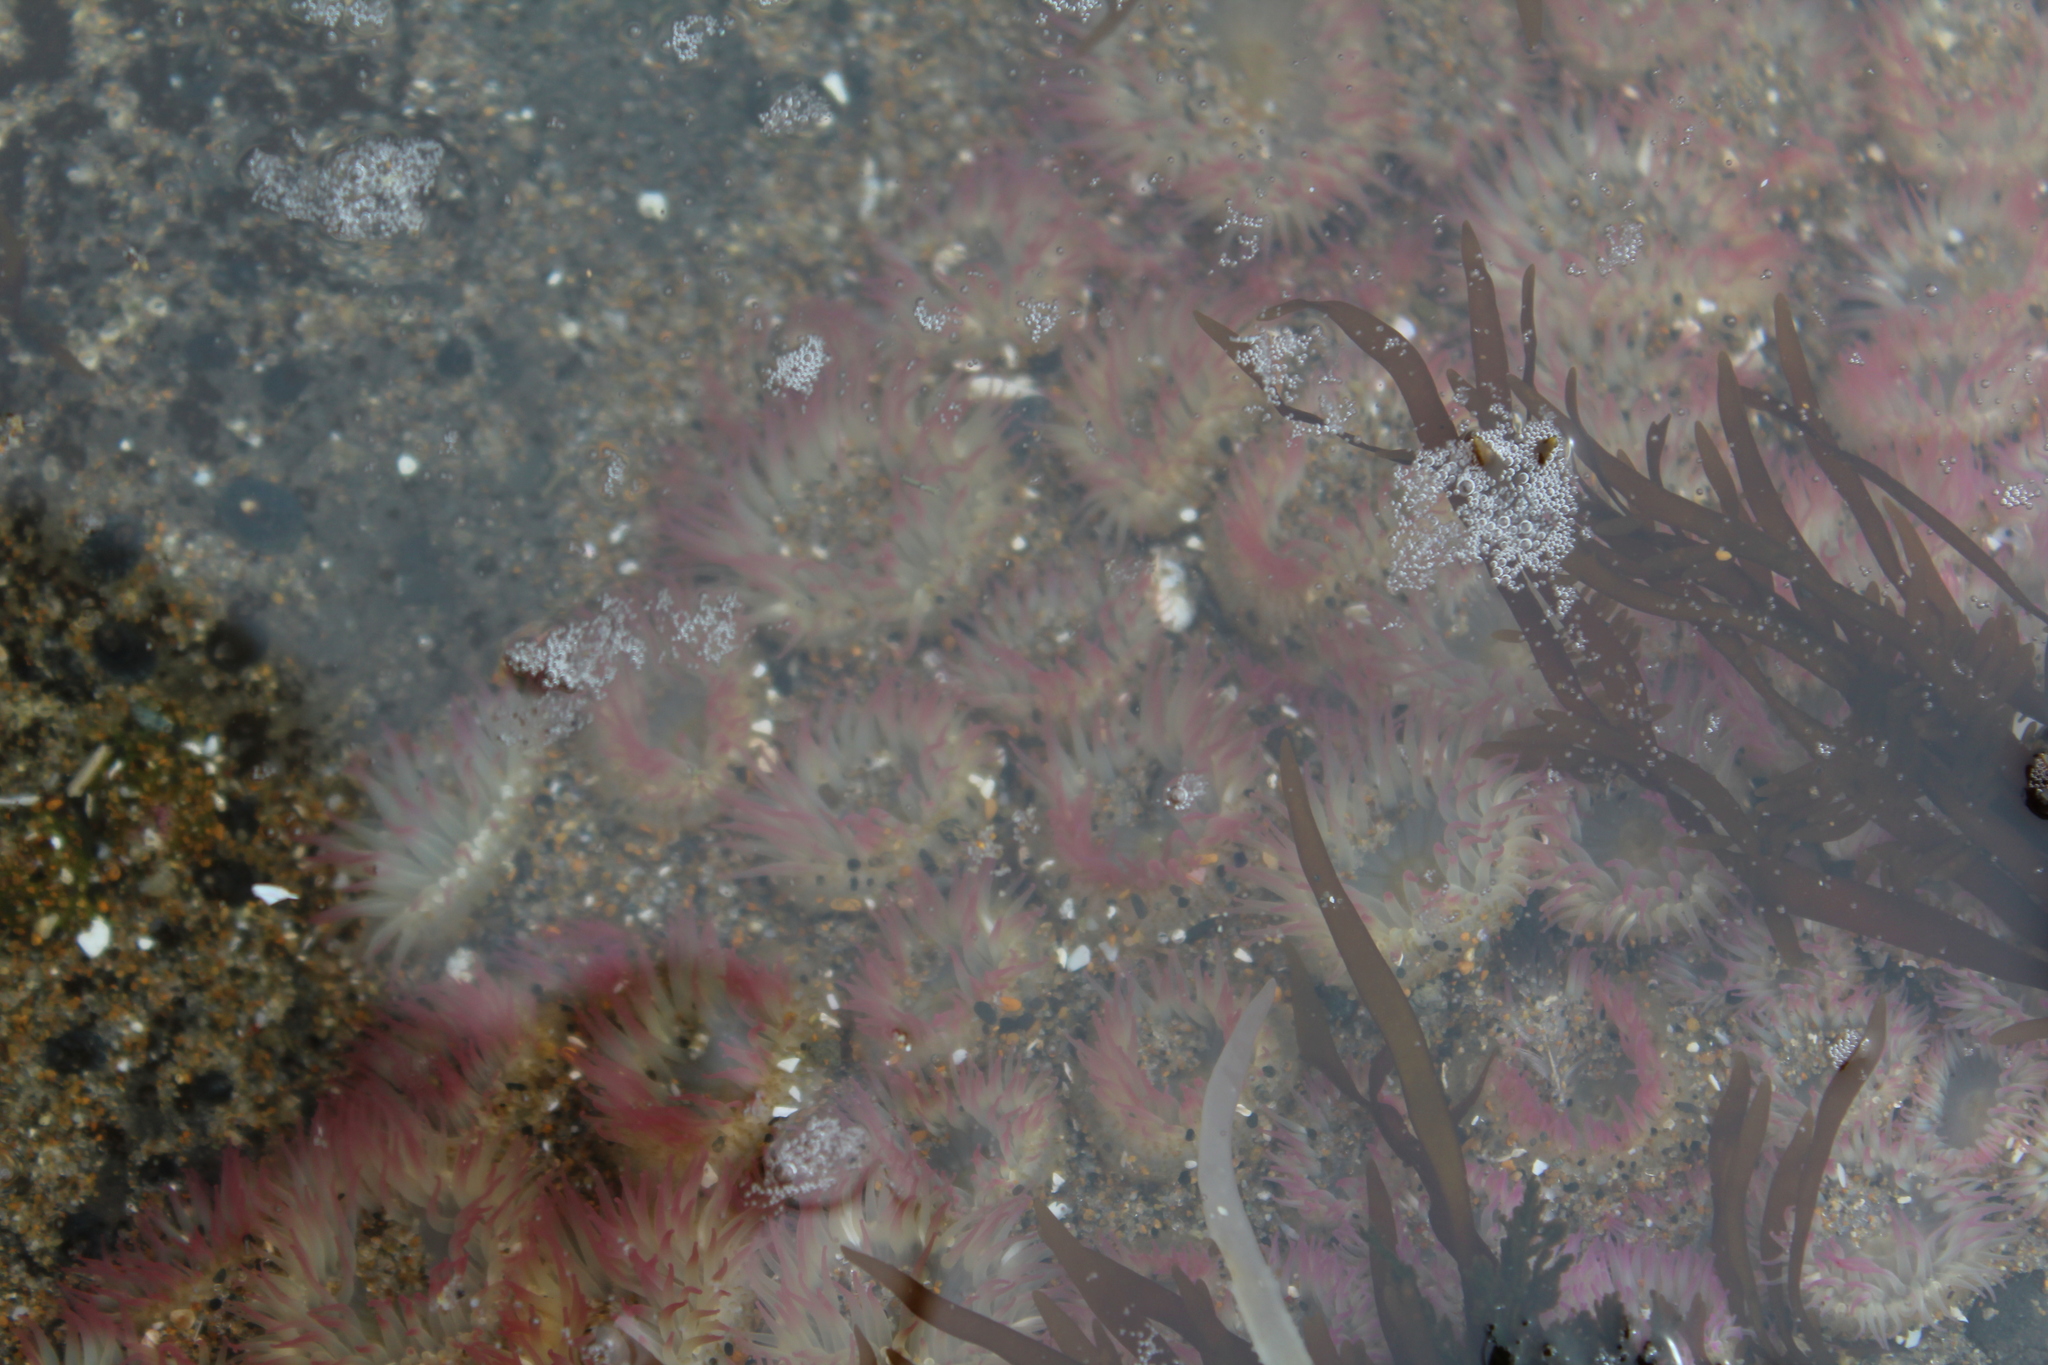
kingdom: Animalia
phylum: Cnidaria
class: Anthozoa
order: Actiniaria
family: Actiniidae
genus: Anthopleura
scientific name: Anthopleura elegantissima
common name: Clonal anemone
